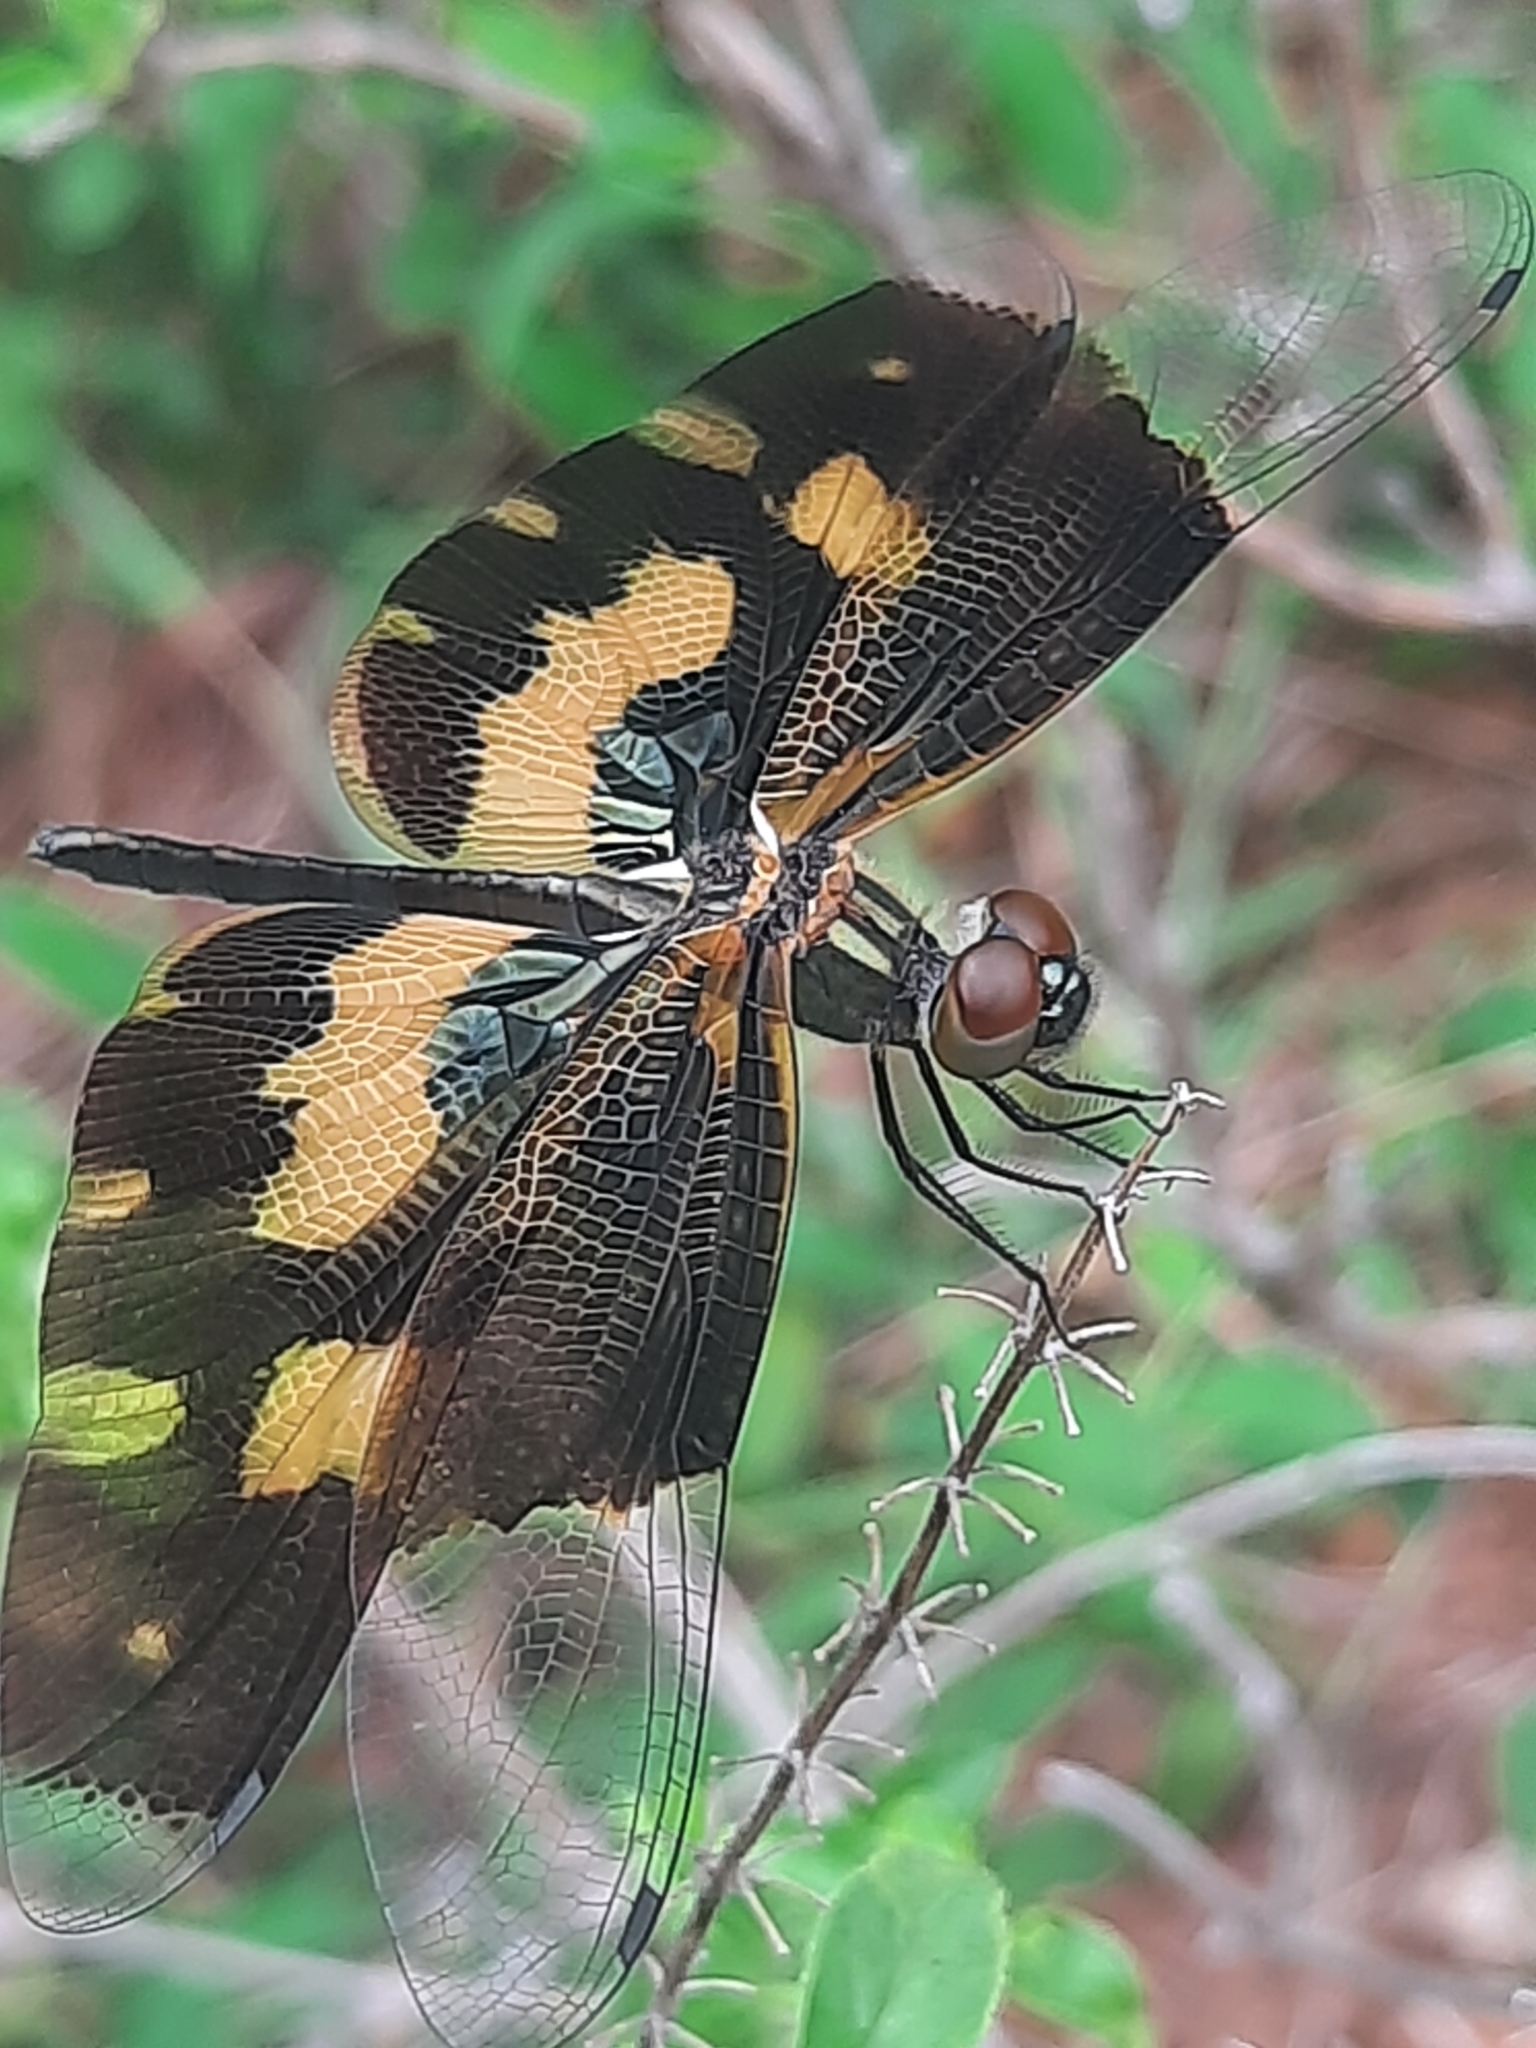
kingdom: Animalia
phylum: Arthropoda
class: Insecta
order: Odonata
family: Libellulidae
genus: Rhyothemis
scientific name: Rhyothemis variegata
